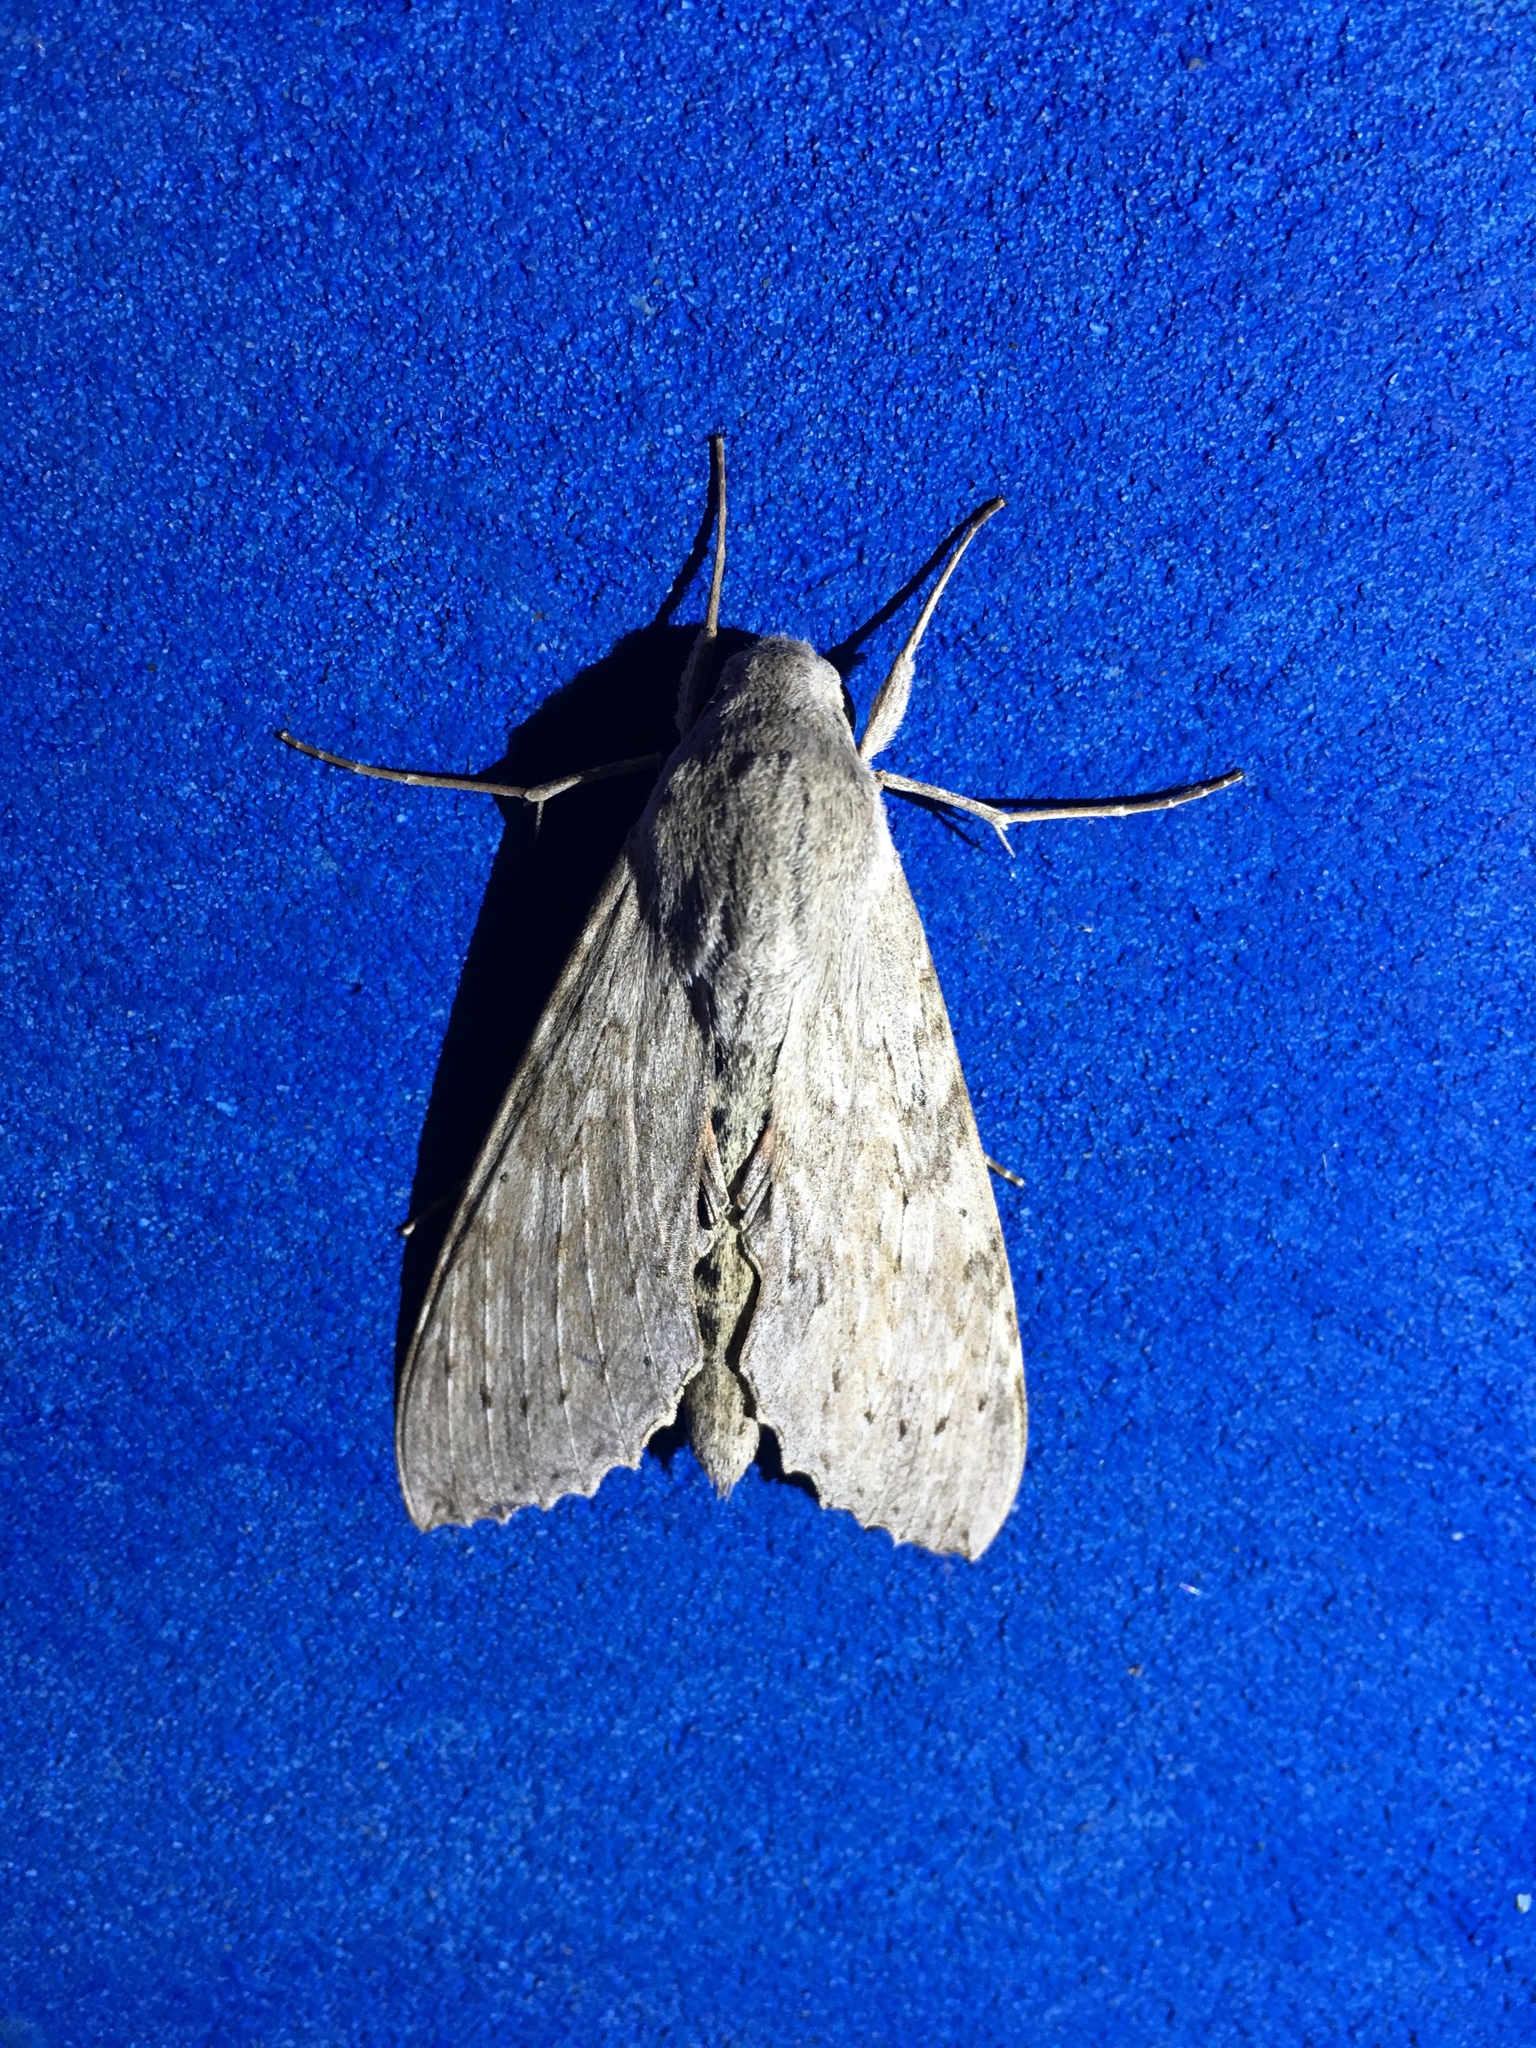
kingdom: Animalia
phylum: Arthropoda
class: Insecta
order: Lepidoptera
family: Sphingidae
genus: Erinnyis
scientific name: Erinnyis ello
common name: Ello sphinx
